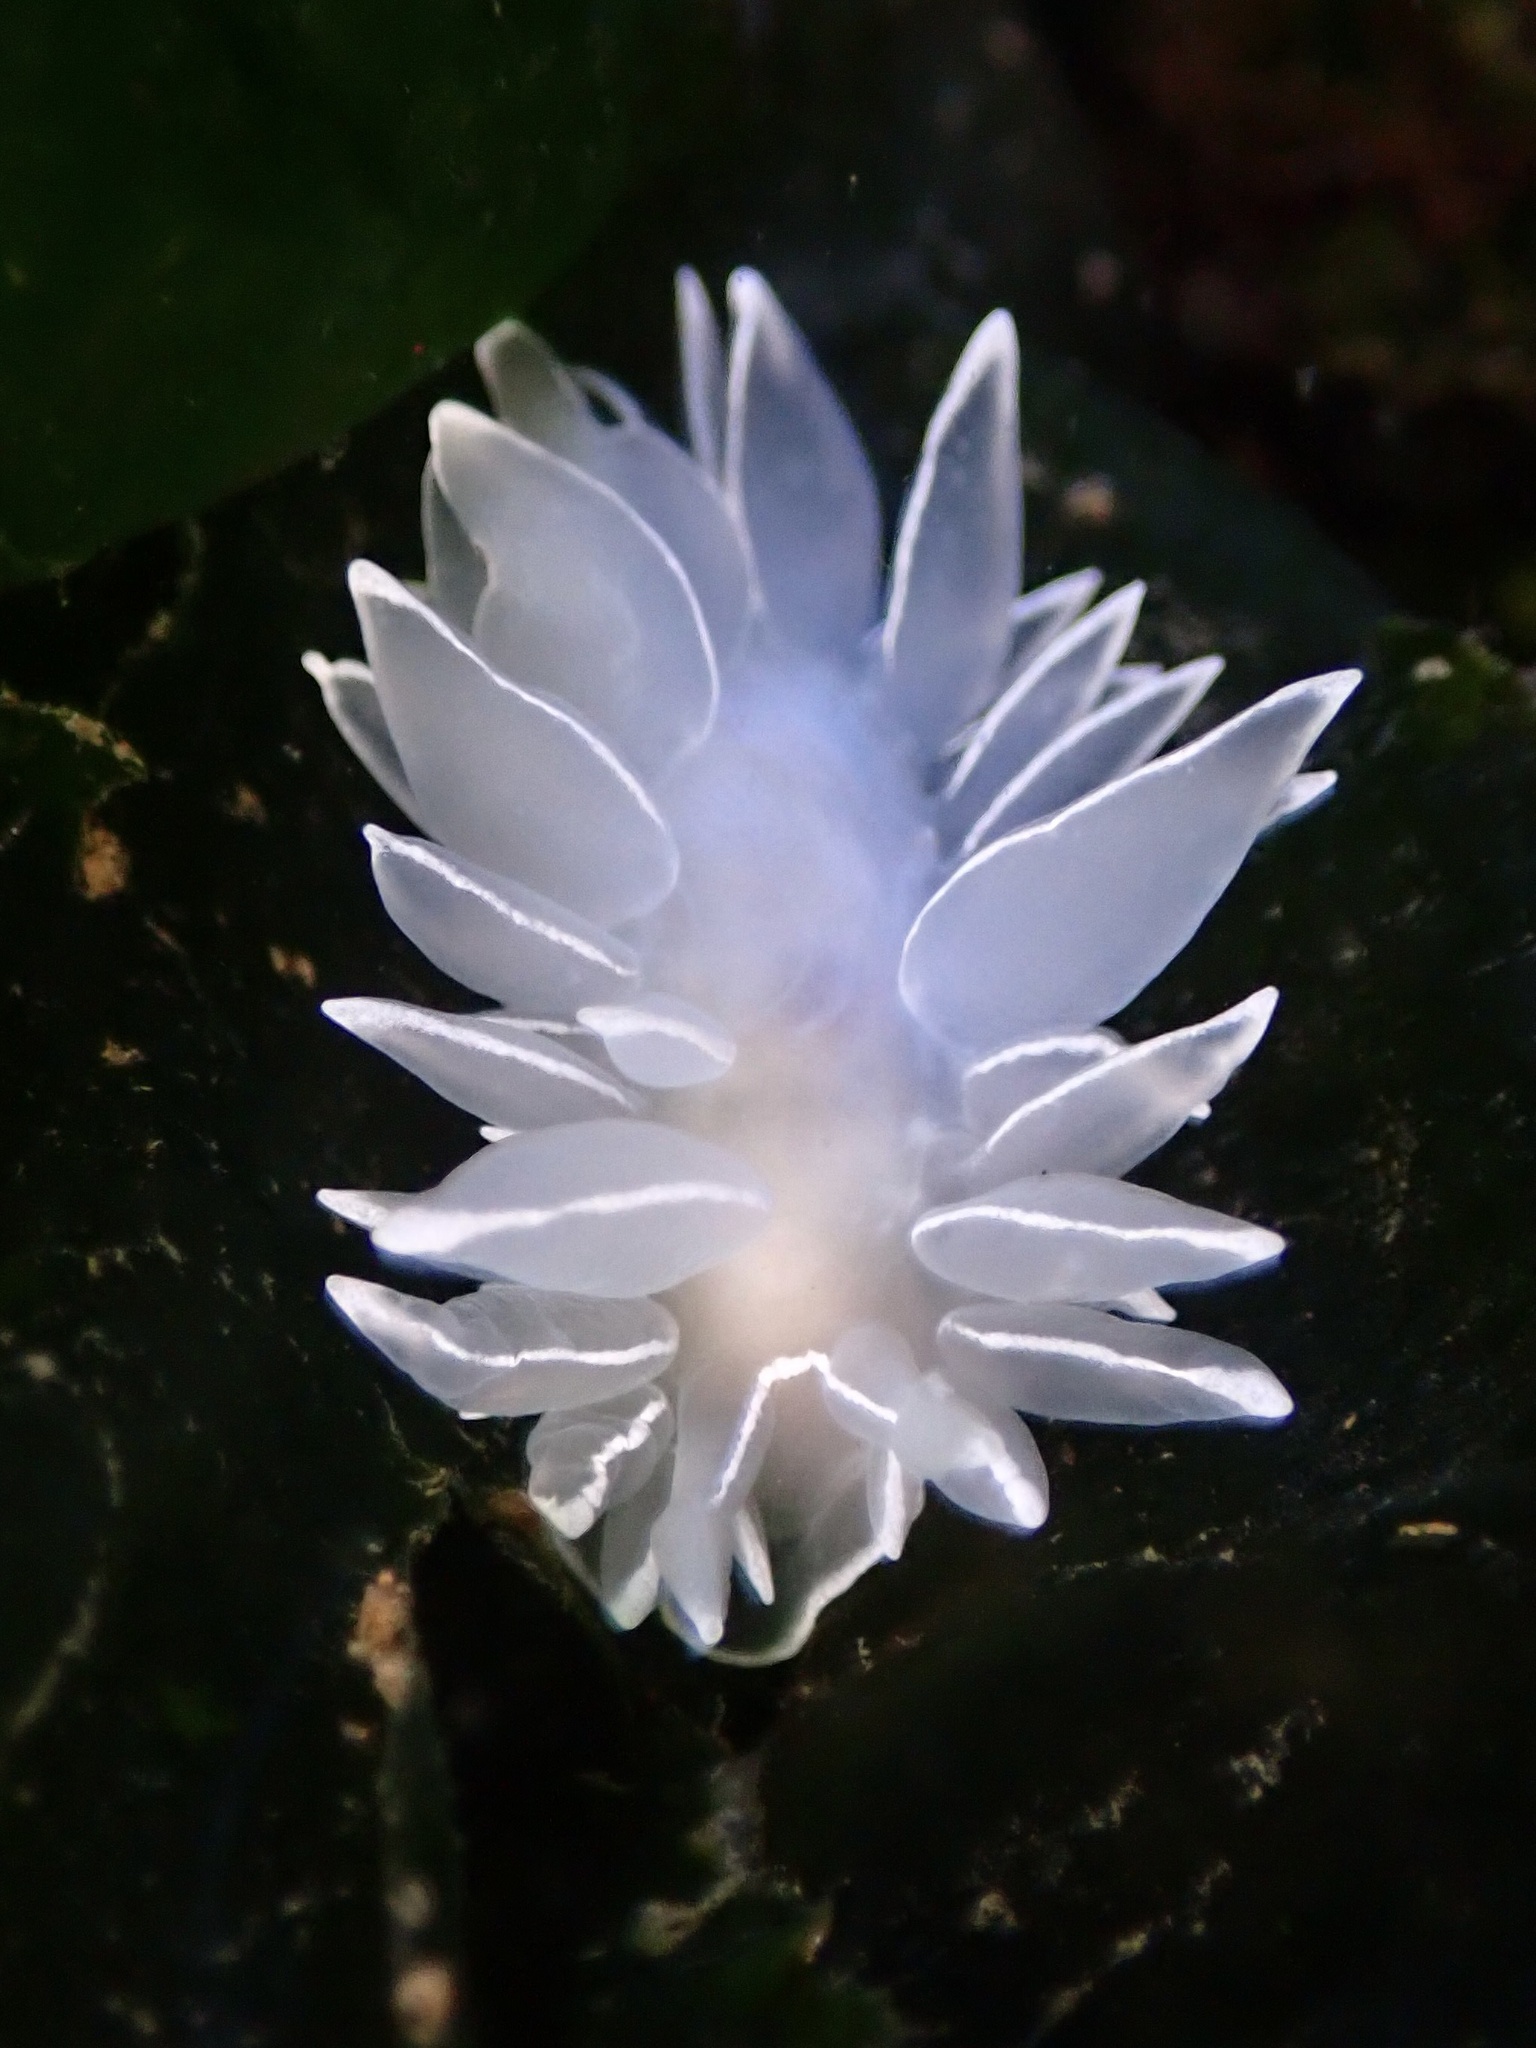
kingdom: Animalia
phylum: Mollusca
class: Gastropoda
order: Nudibranchia
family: Dironidae
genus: Dirona
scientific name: Dirona albolineata
